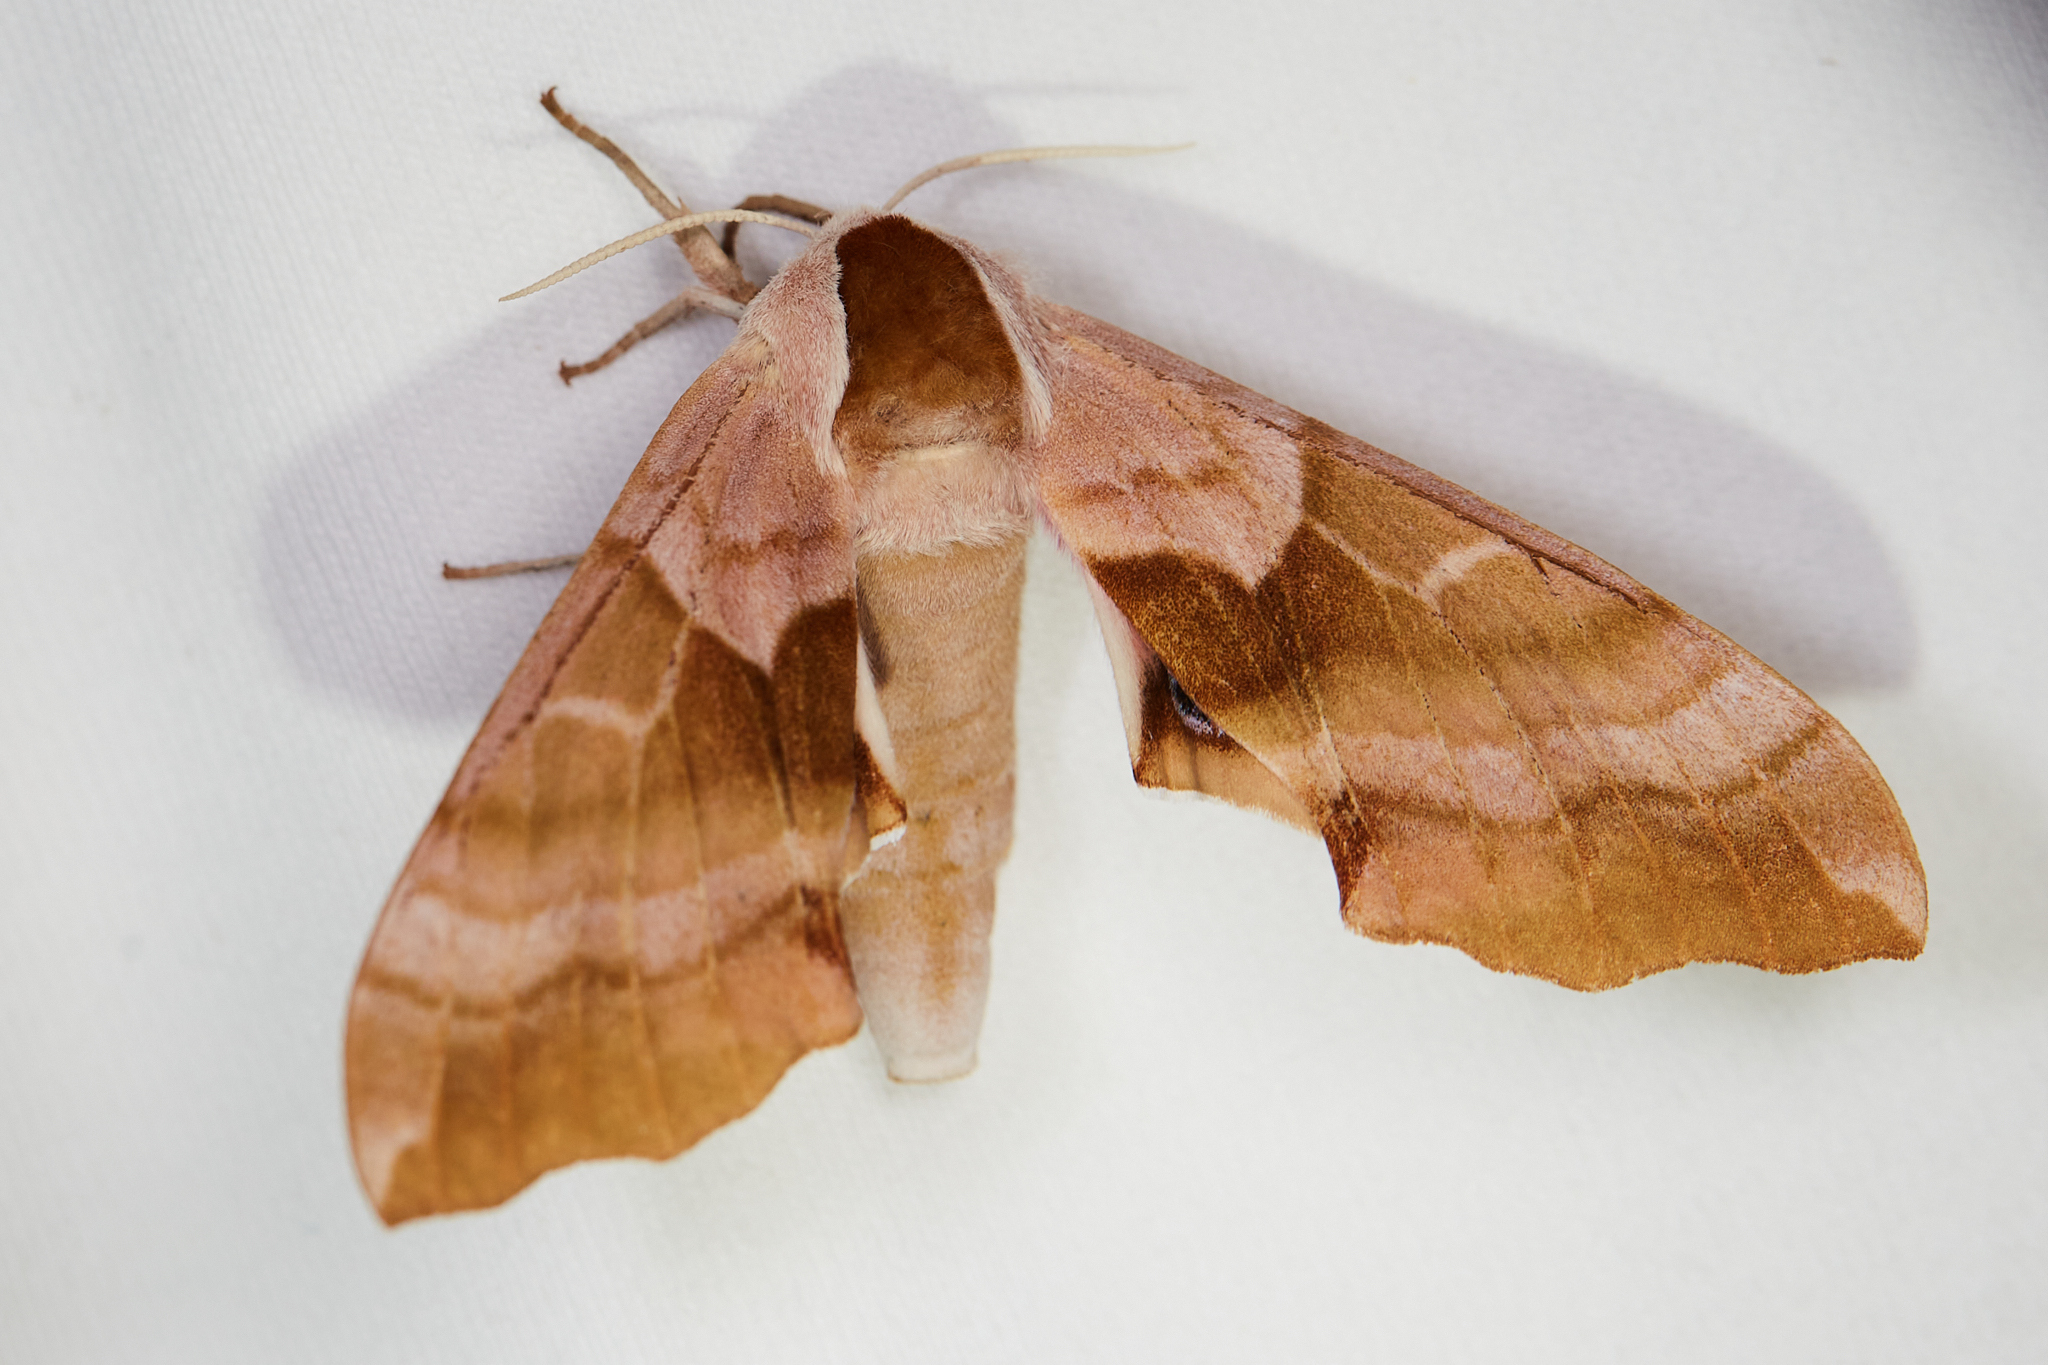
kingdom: Animalia
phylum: Arthropoda
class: Insecta
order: Lepidoptera
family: Sphingidae
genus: Smerinthus
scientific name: Smerinthus cerisyi
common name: Cerisy's sphinx moth
